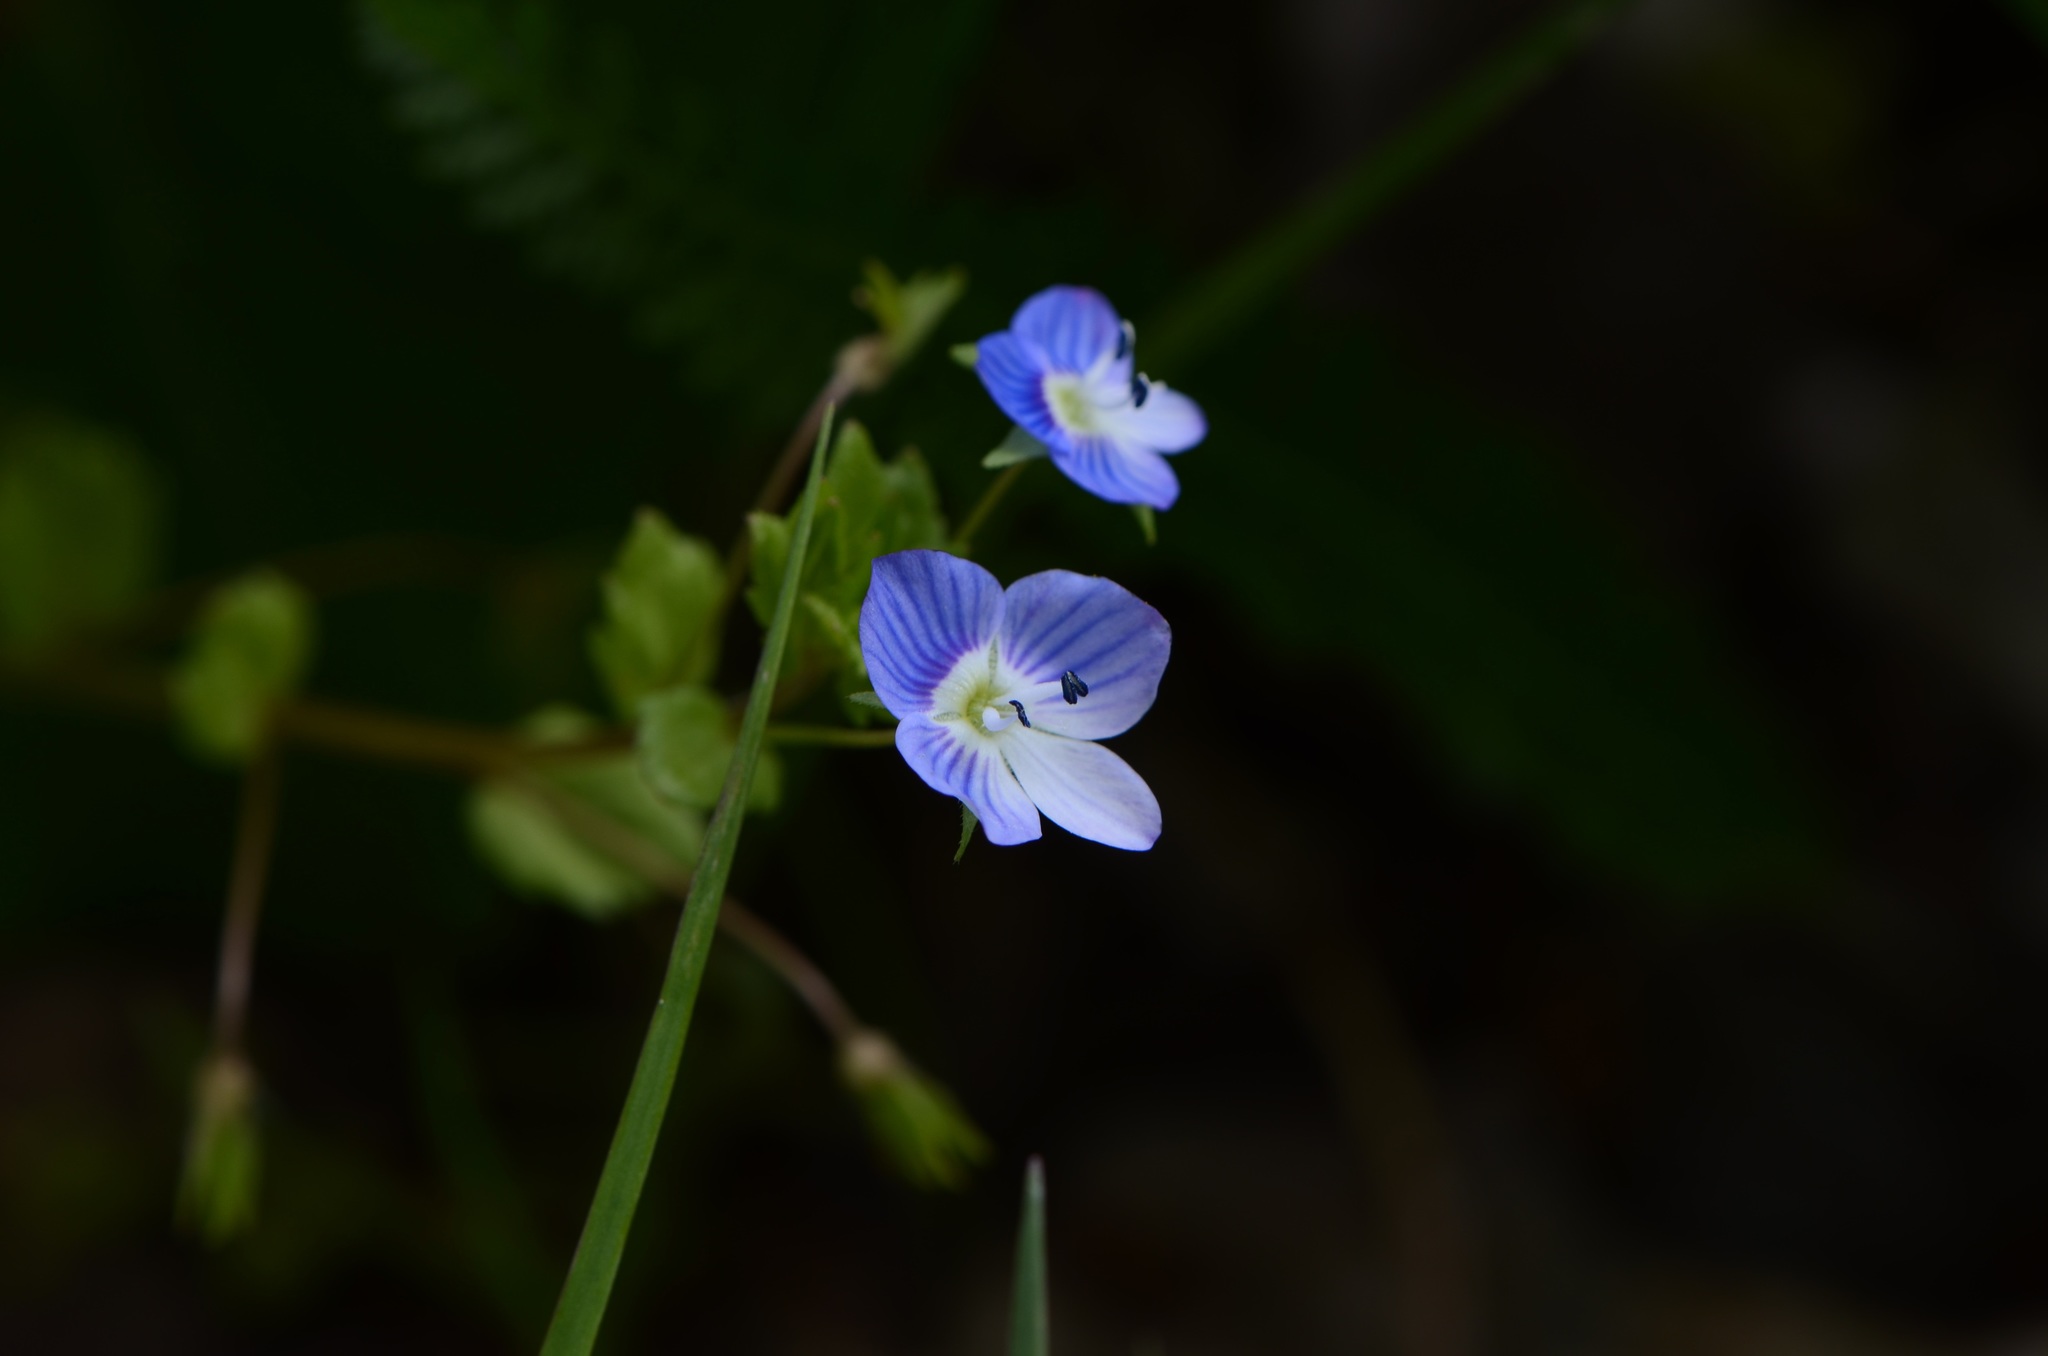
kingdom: Plantae
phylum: Tracheophyta
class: Magnoliopsida
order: Lamiales
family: Plantaginaceae
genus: Veronica
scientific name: Veronica persica
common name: Common field-speedwell
